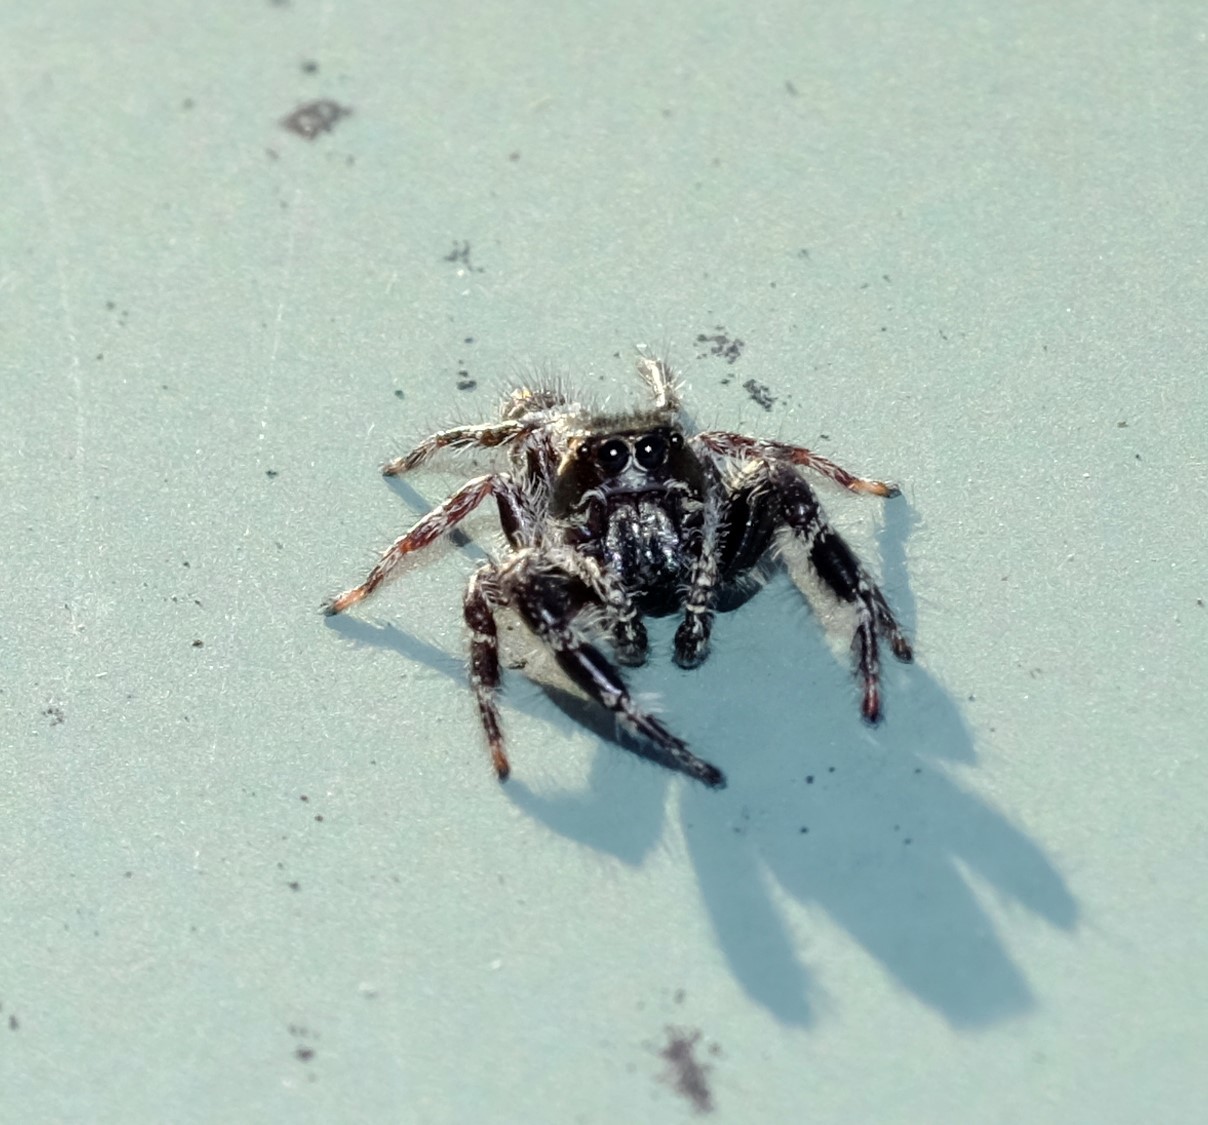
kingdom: Animalia
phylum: Arthropoda
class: Arachnida
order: Araneae
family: Salticidae
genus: Sandalodes
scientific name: Sandalodes superbus
